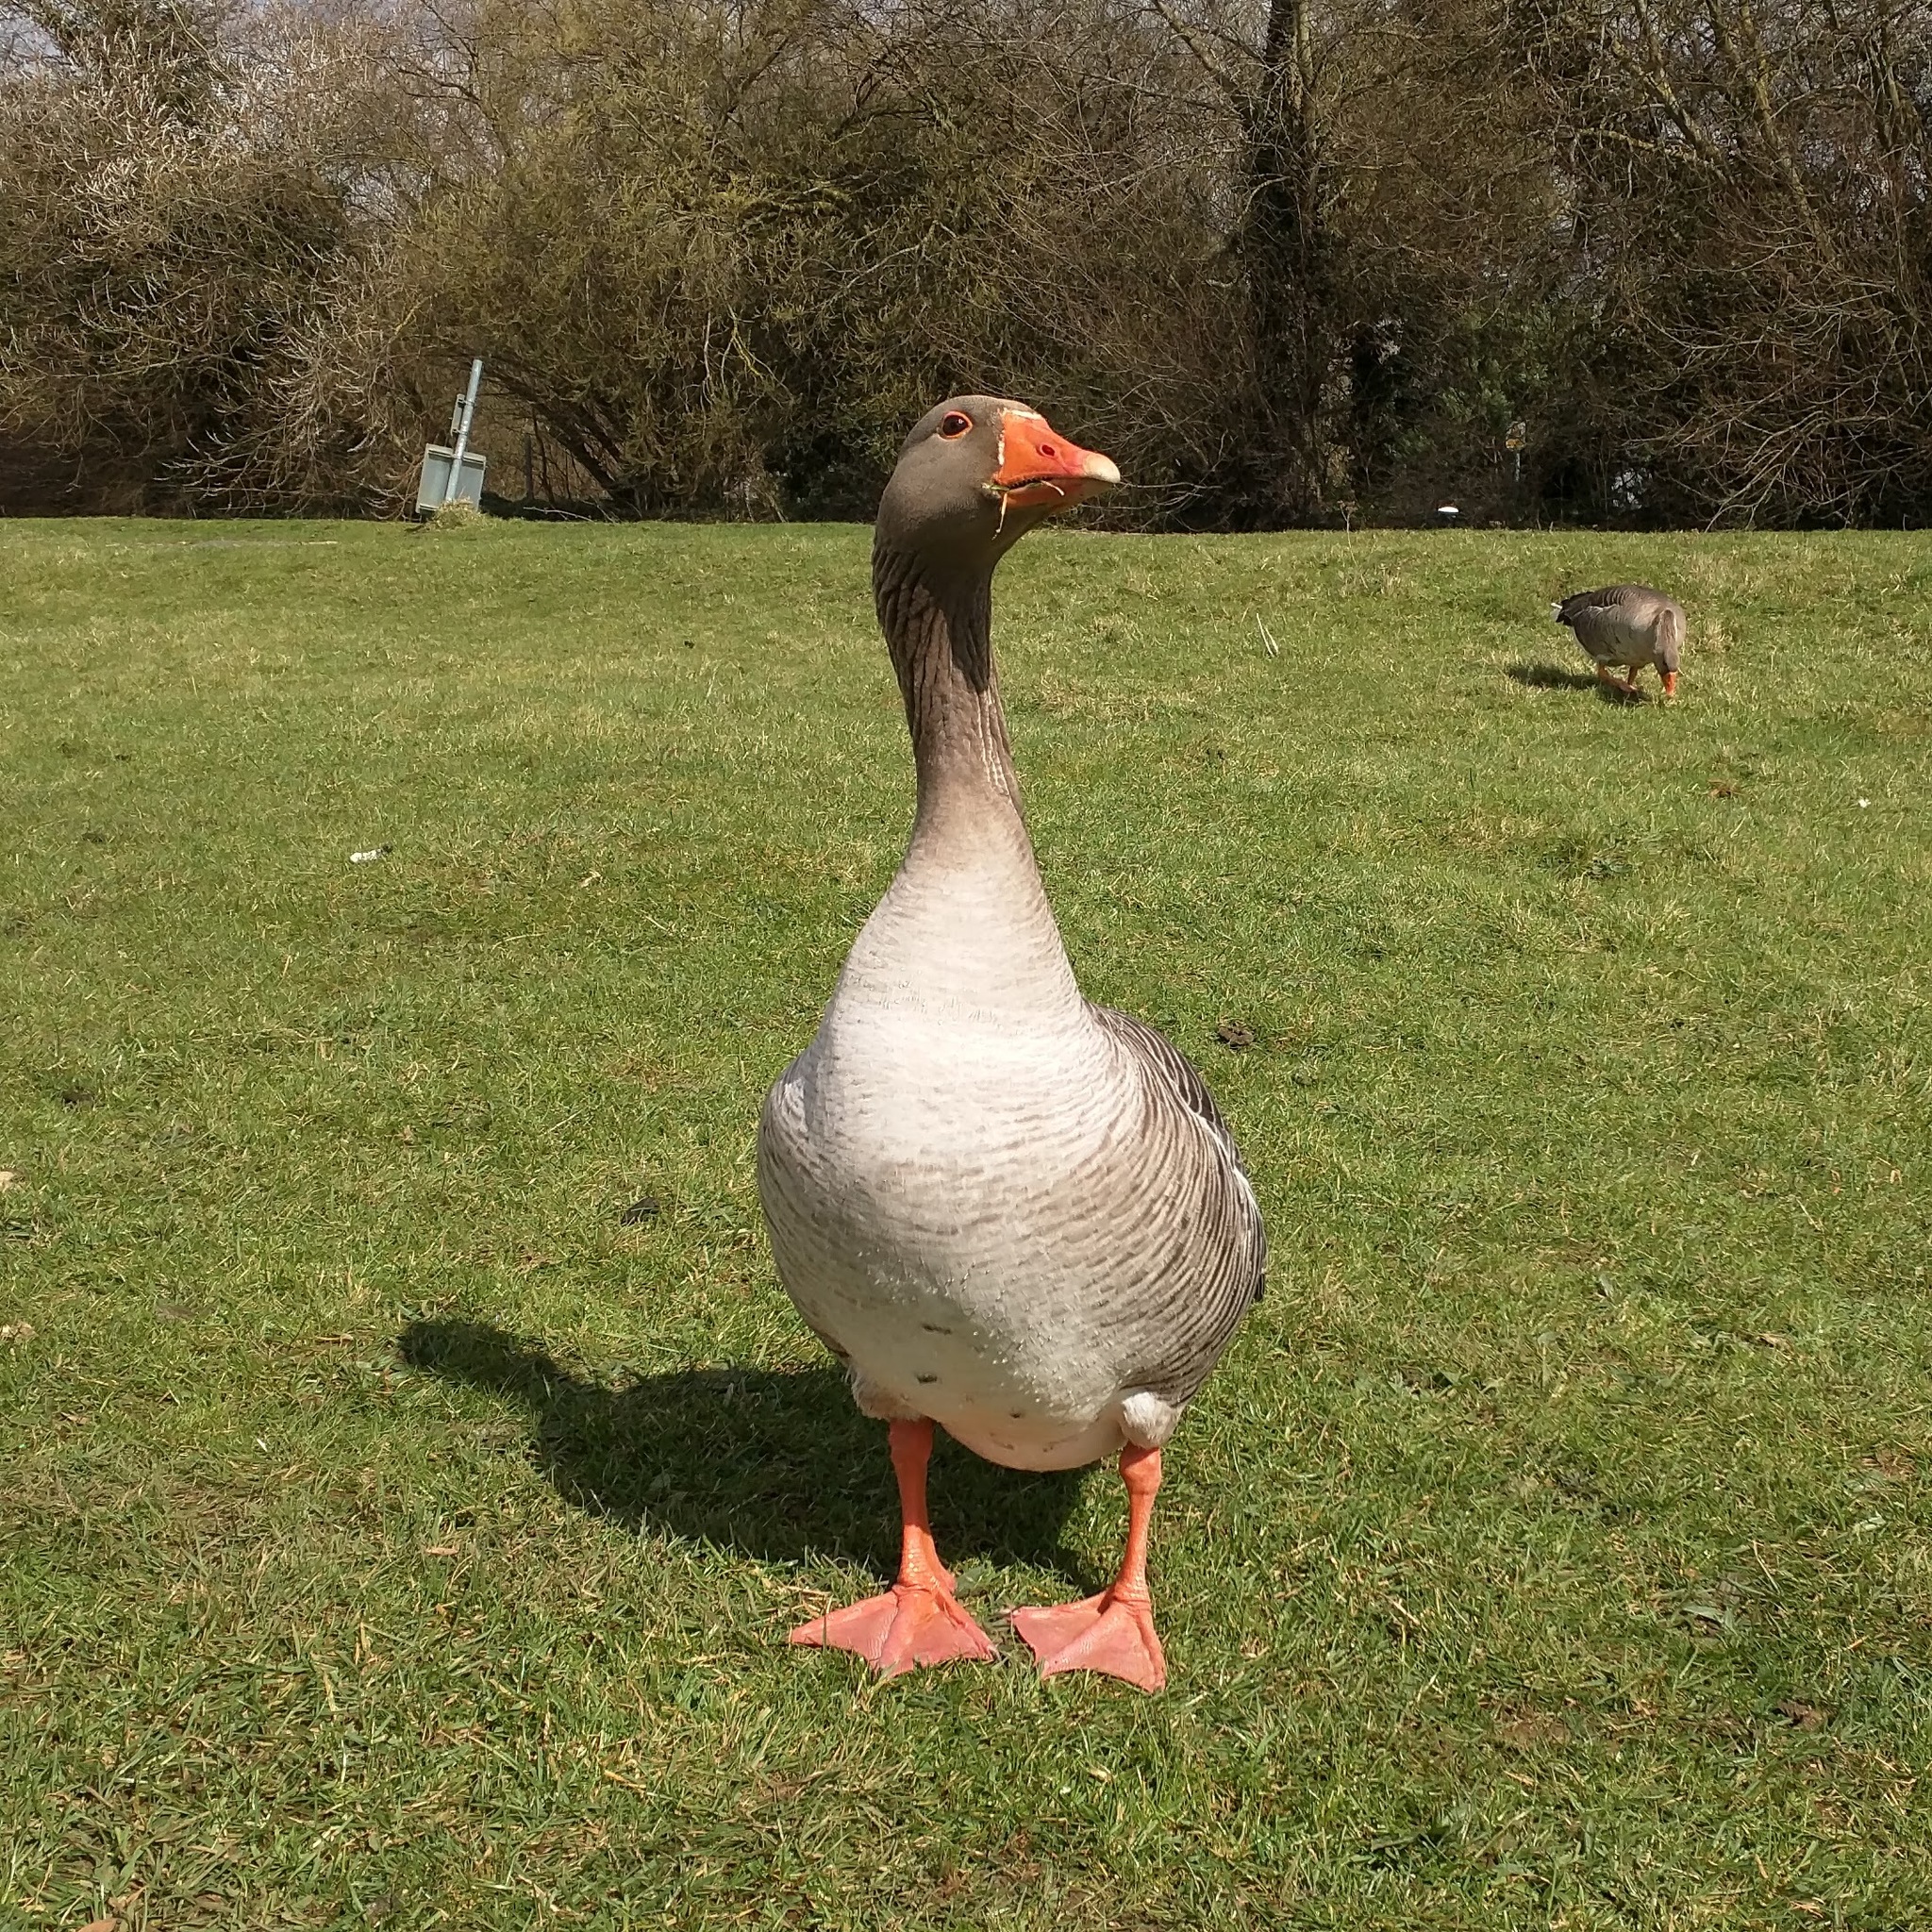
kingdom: Animalia
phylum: Chordata
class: Aves
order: Anseriformes
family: Anatidae
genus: Anser
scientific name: Anser anser
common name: Greylag goose
